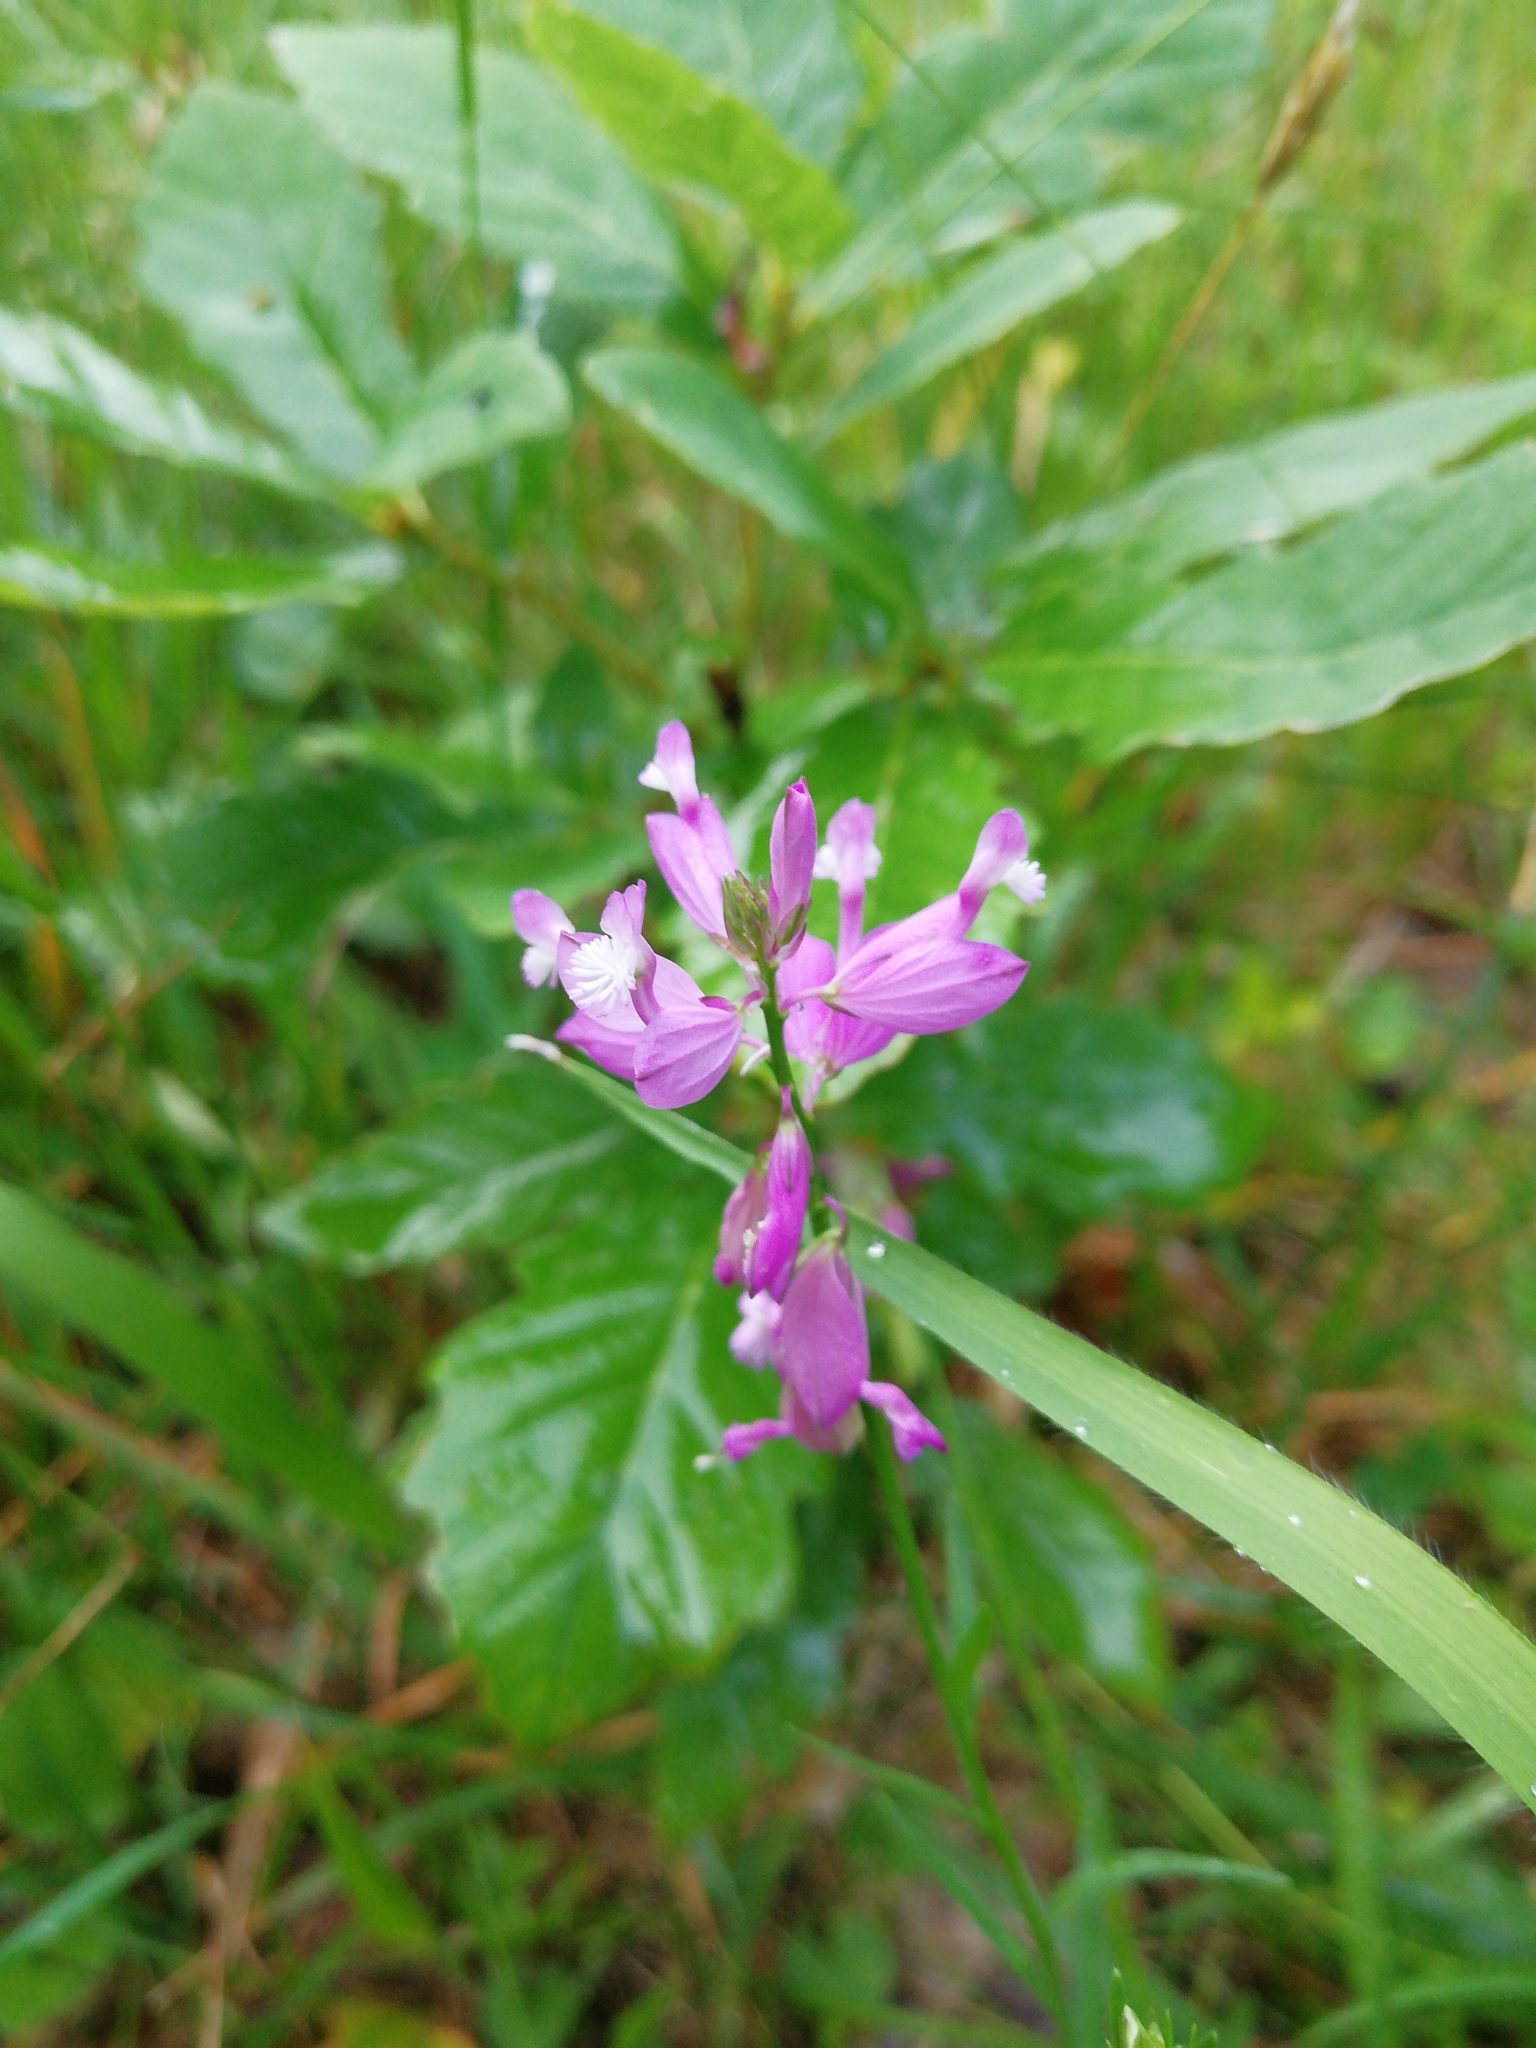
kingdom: Plantae
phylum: Tracheophyta
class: Magnoliopsida
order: Fabales
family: Polygalaceae
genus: Polygala
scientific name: Polygala major
